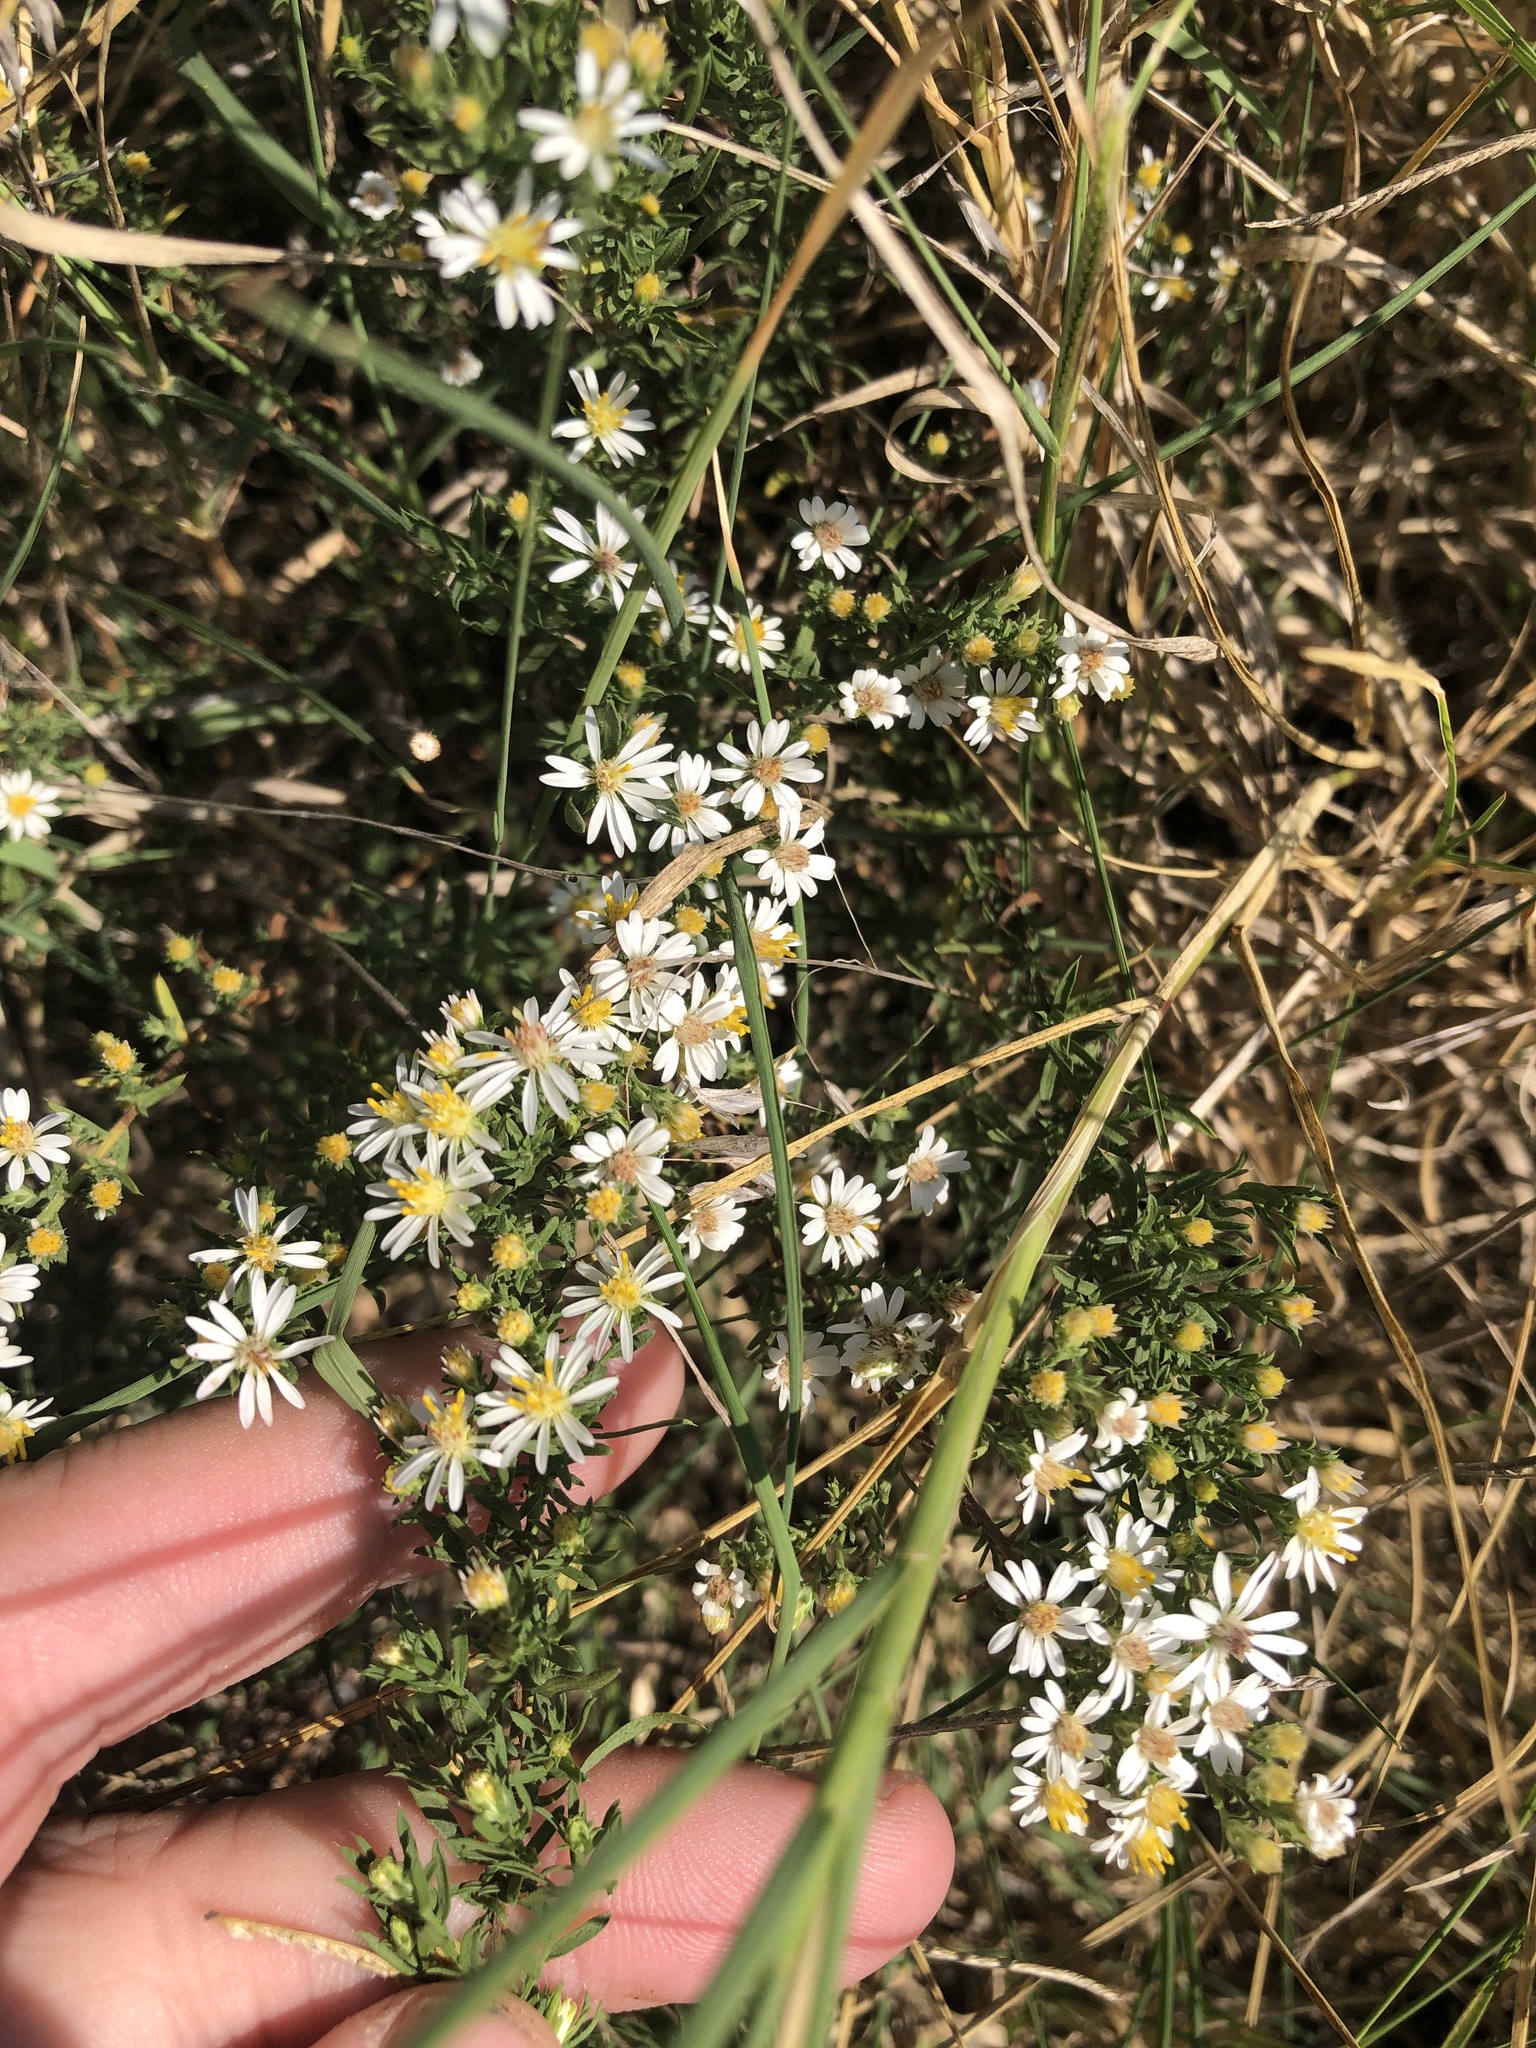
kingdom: Plantae
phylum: Tracheophyta
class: Magnoliopsida
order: Asterales
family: Asteraceae
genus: Symphyotrichum
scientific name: Symphyotrichum ericoides
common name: Heath aster
